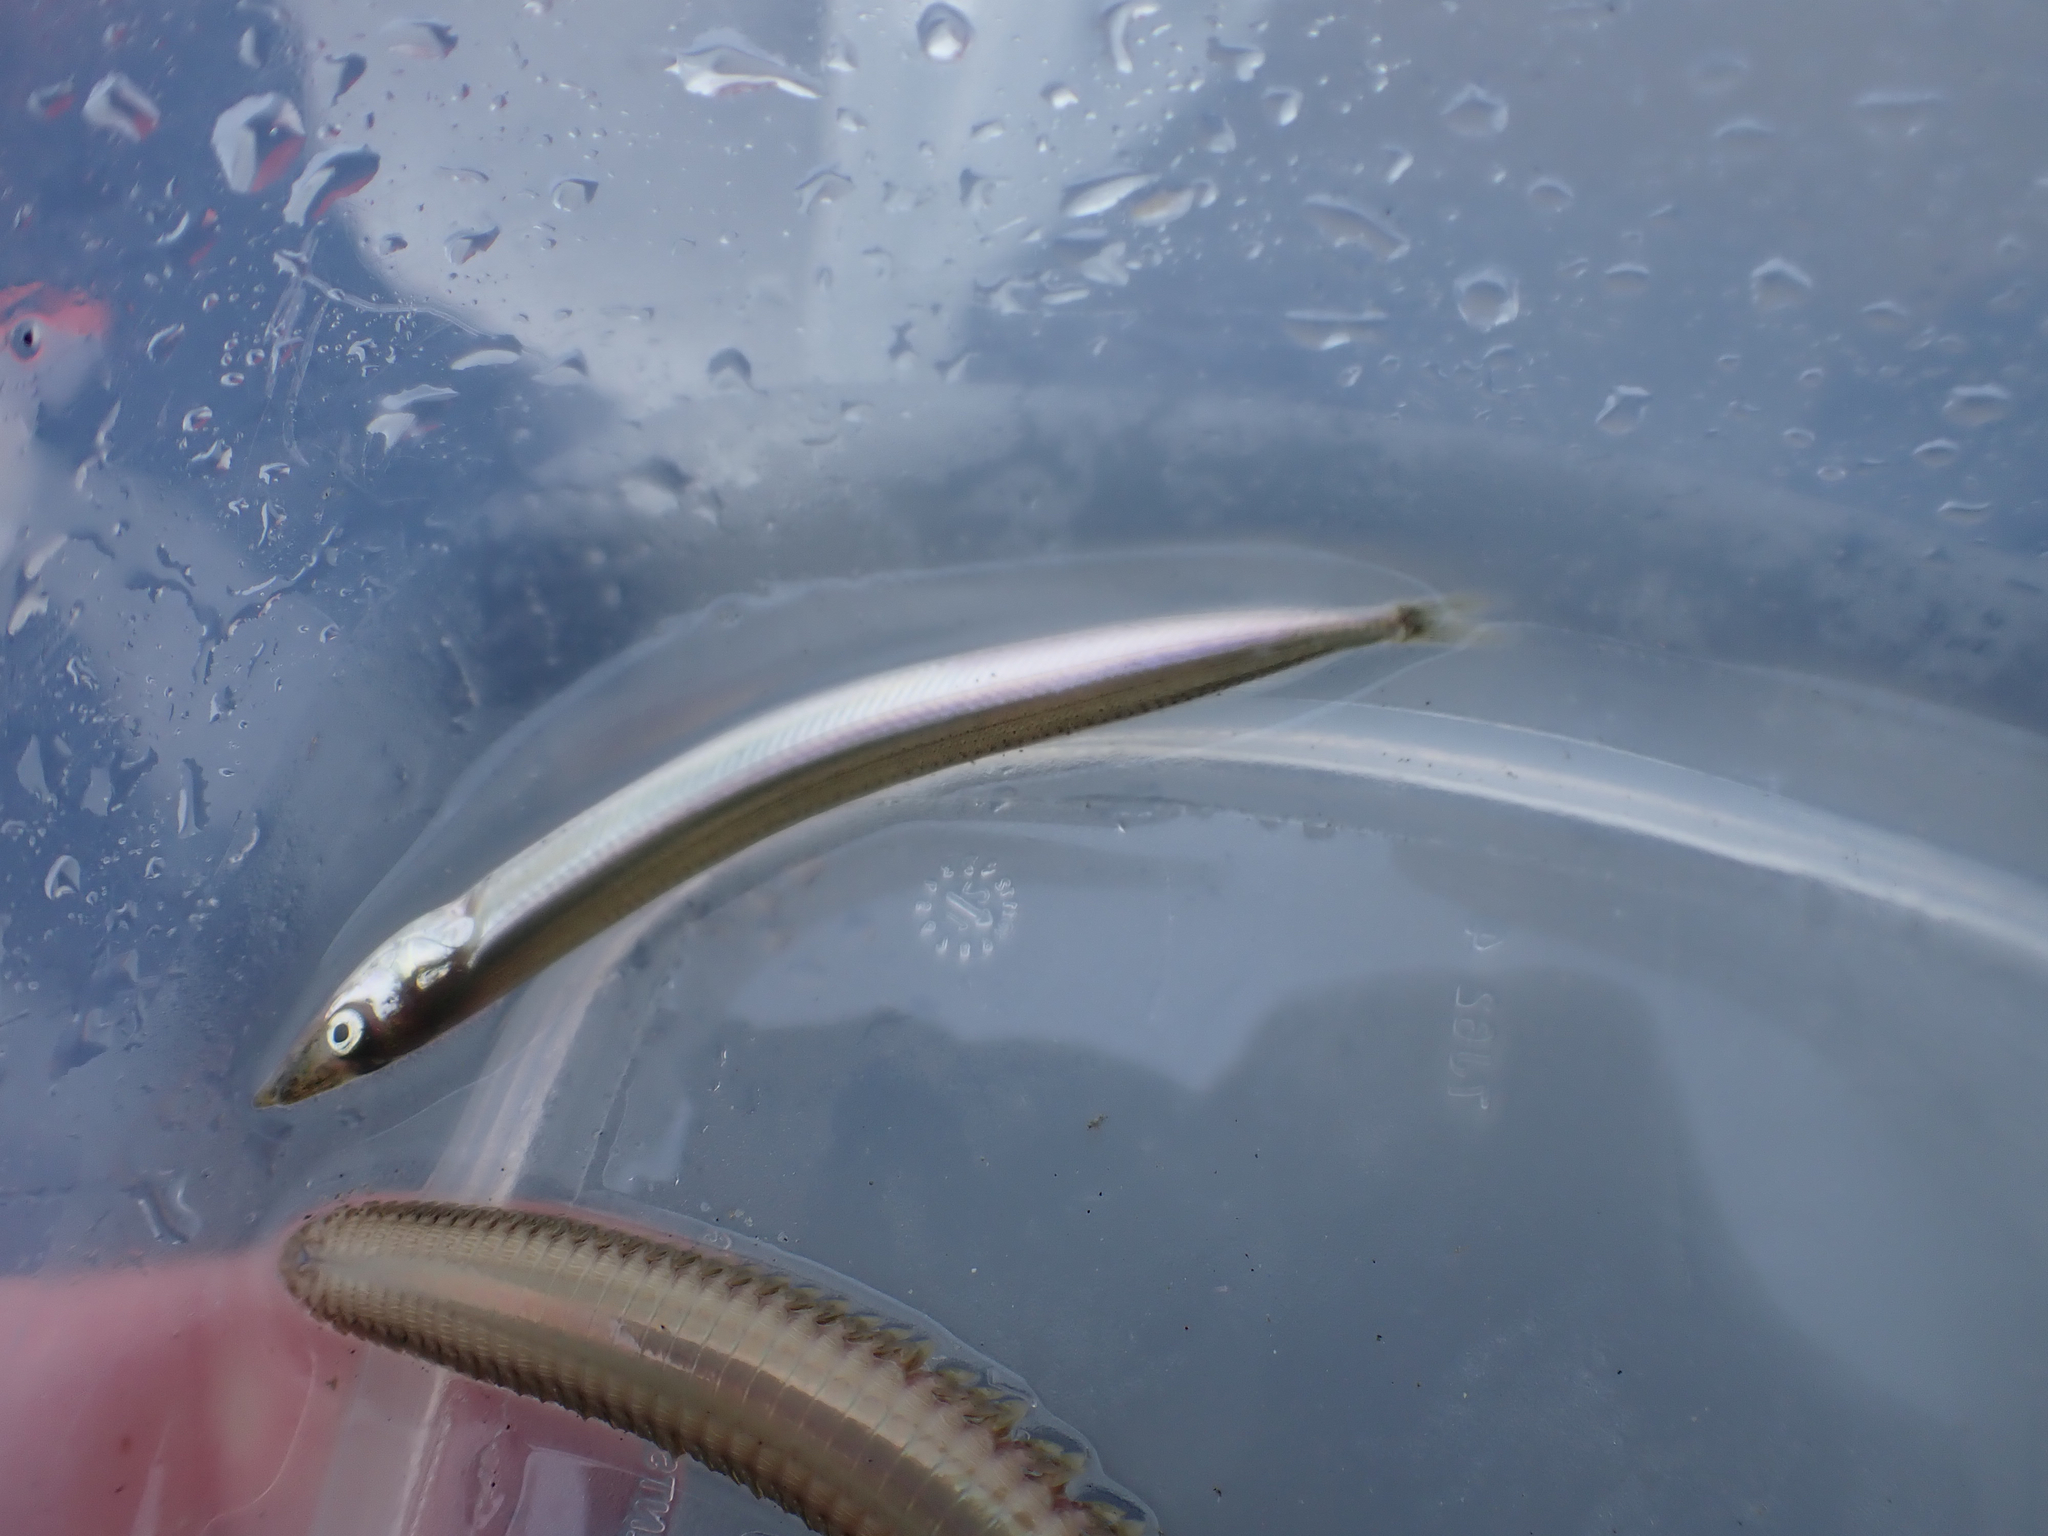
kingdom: Animalia
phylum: Chordata
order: Perciformes
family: Ammodytidae
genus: Ammodytes
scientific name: Ammodytes personatus
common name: Japanese sand lance
